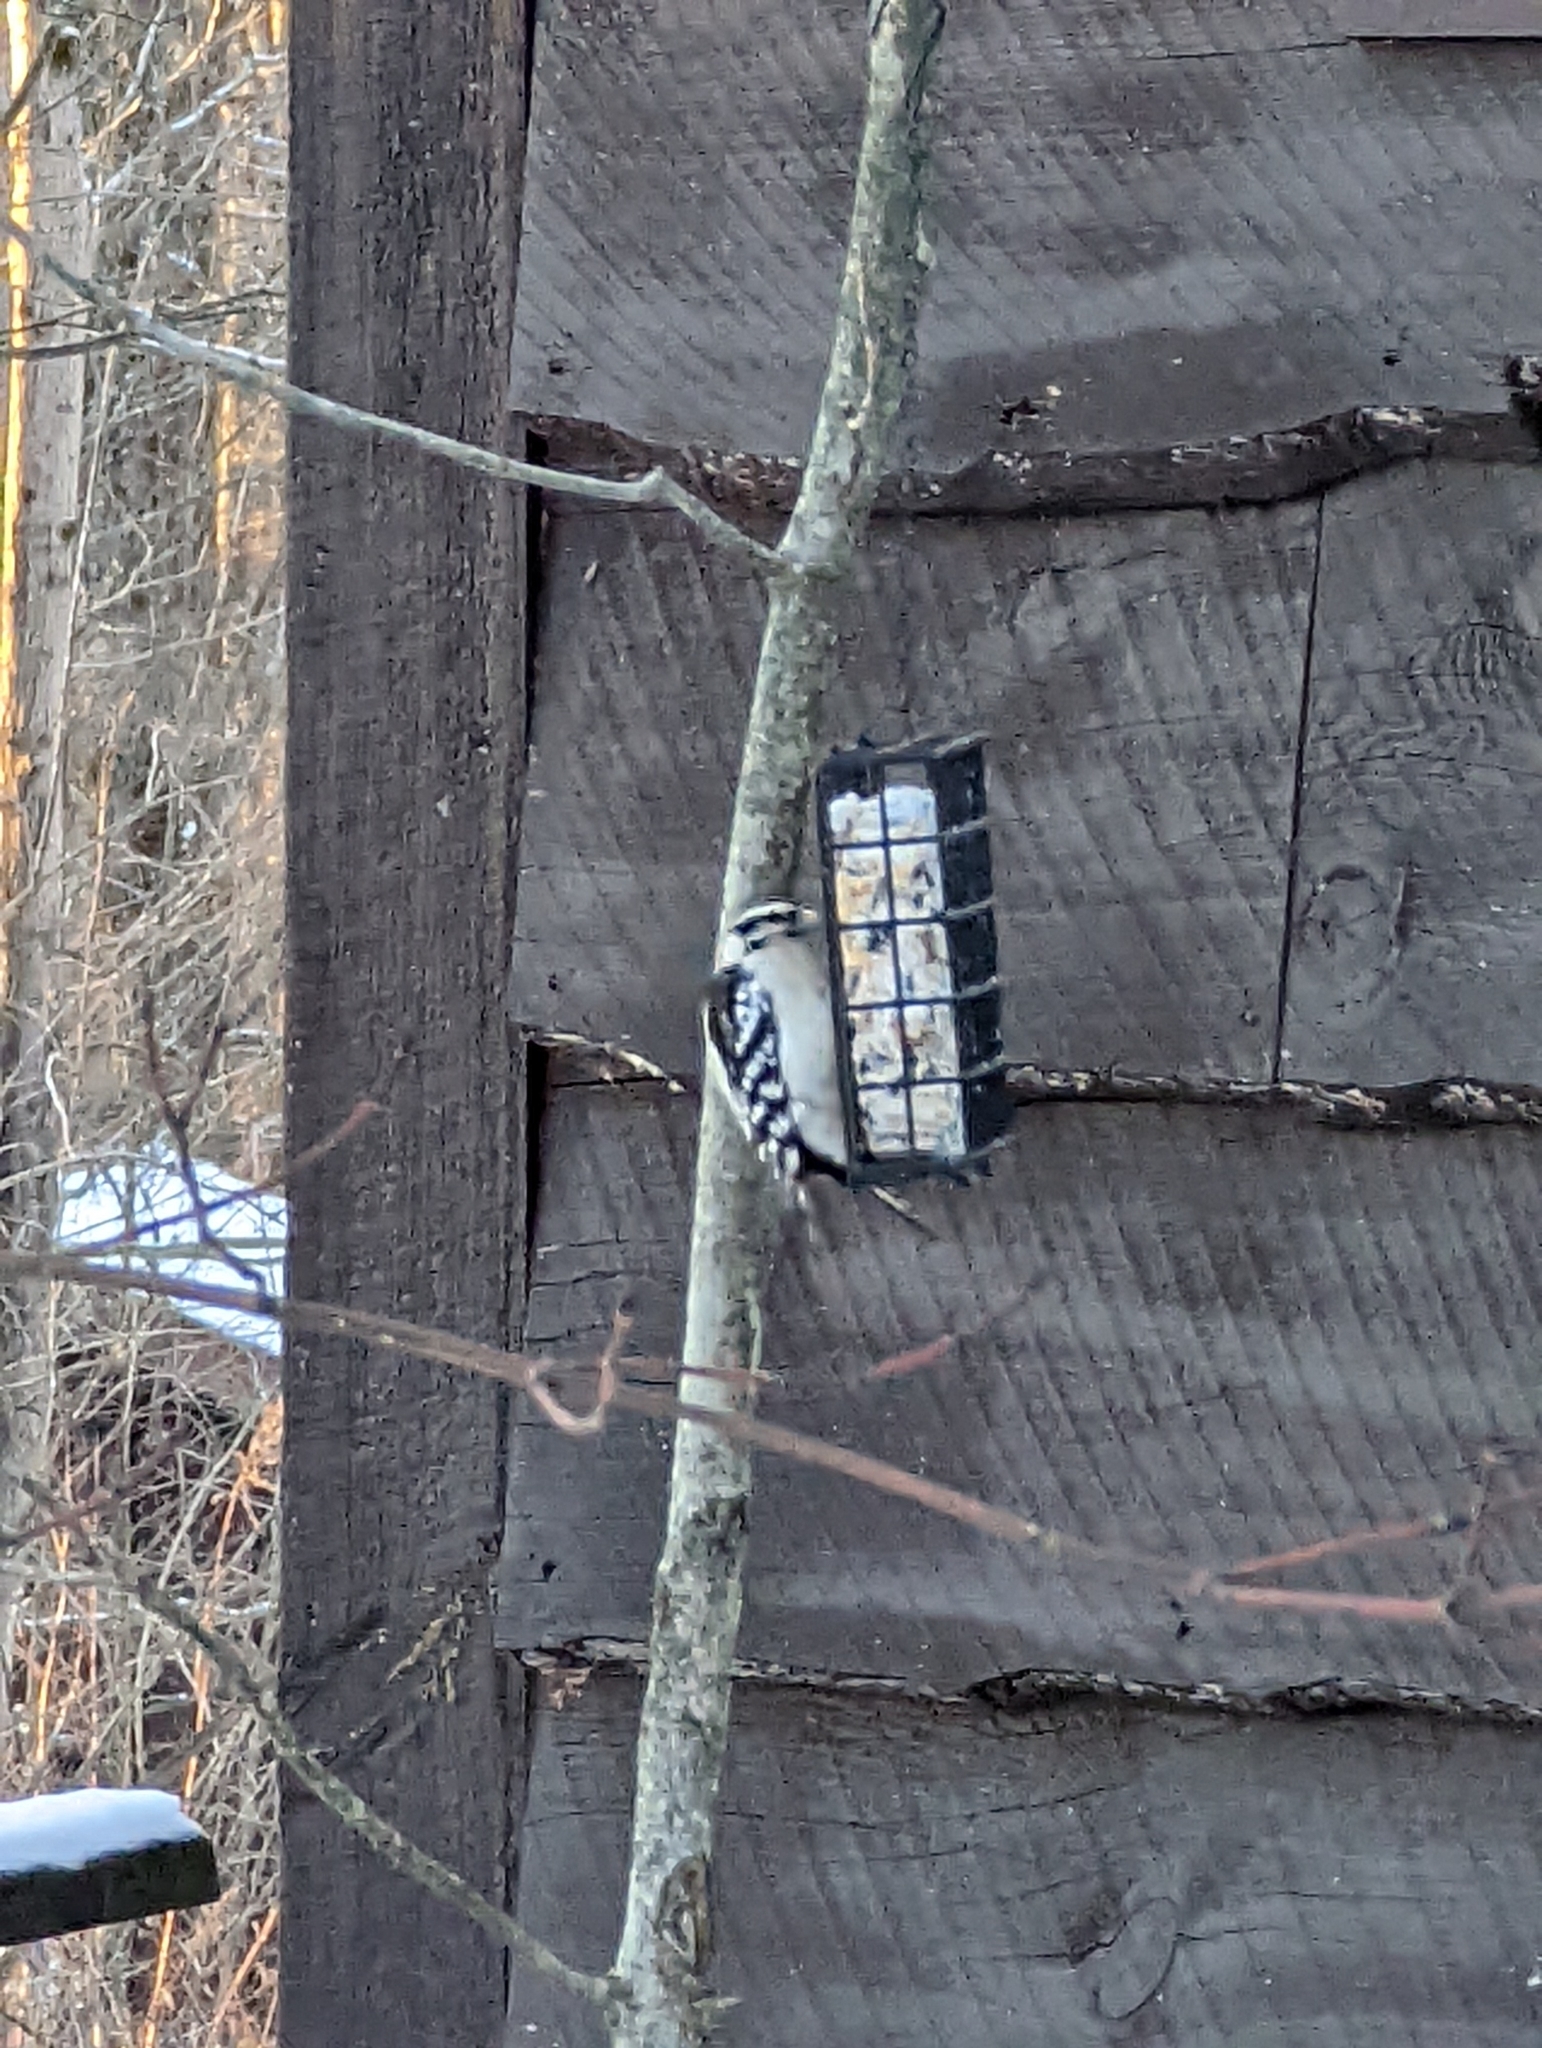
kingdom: Animalia
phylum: Chordata
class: Aves
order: Piciformes
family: Picidae
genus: Dryobates
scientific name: Dryobates pubescens
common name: Downy woodpecker
